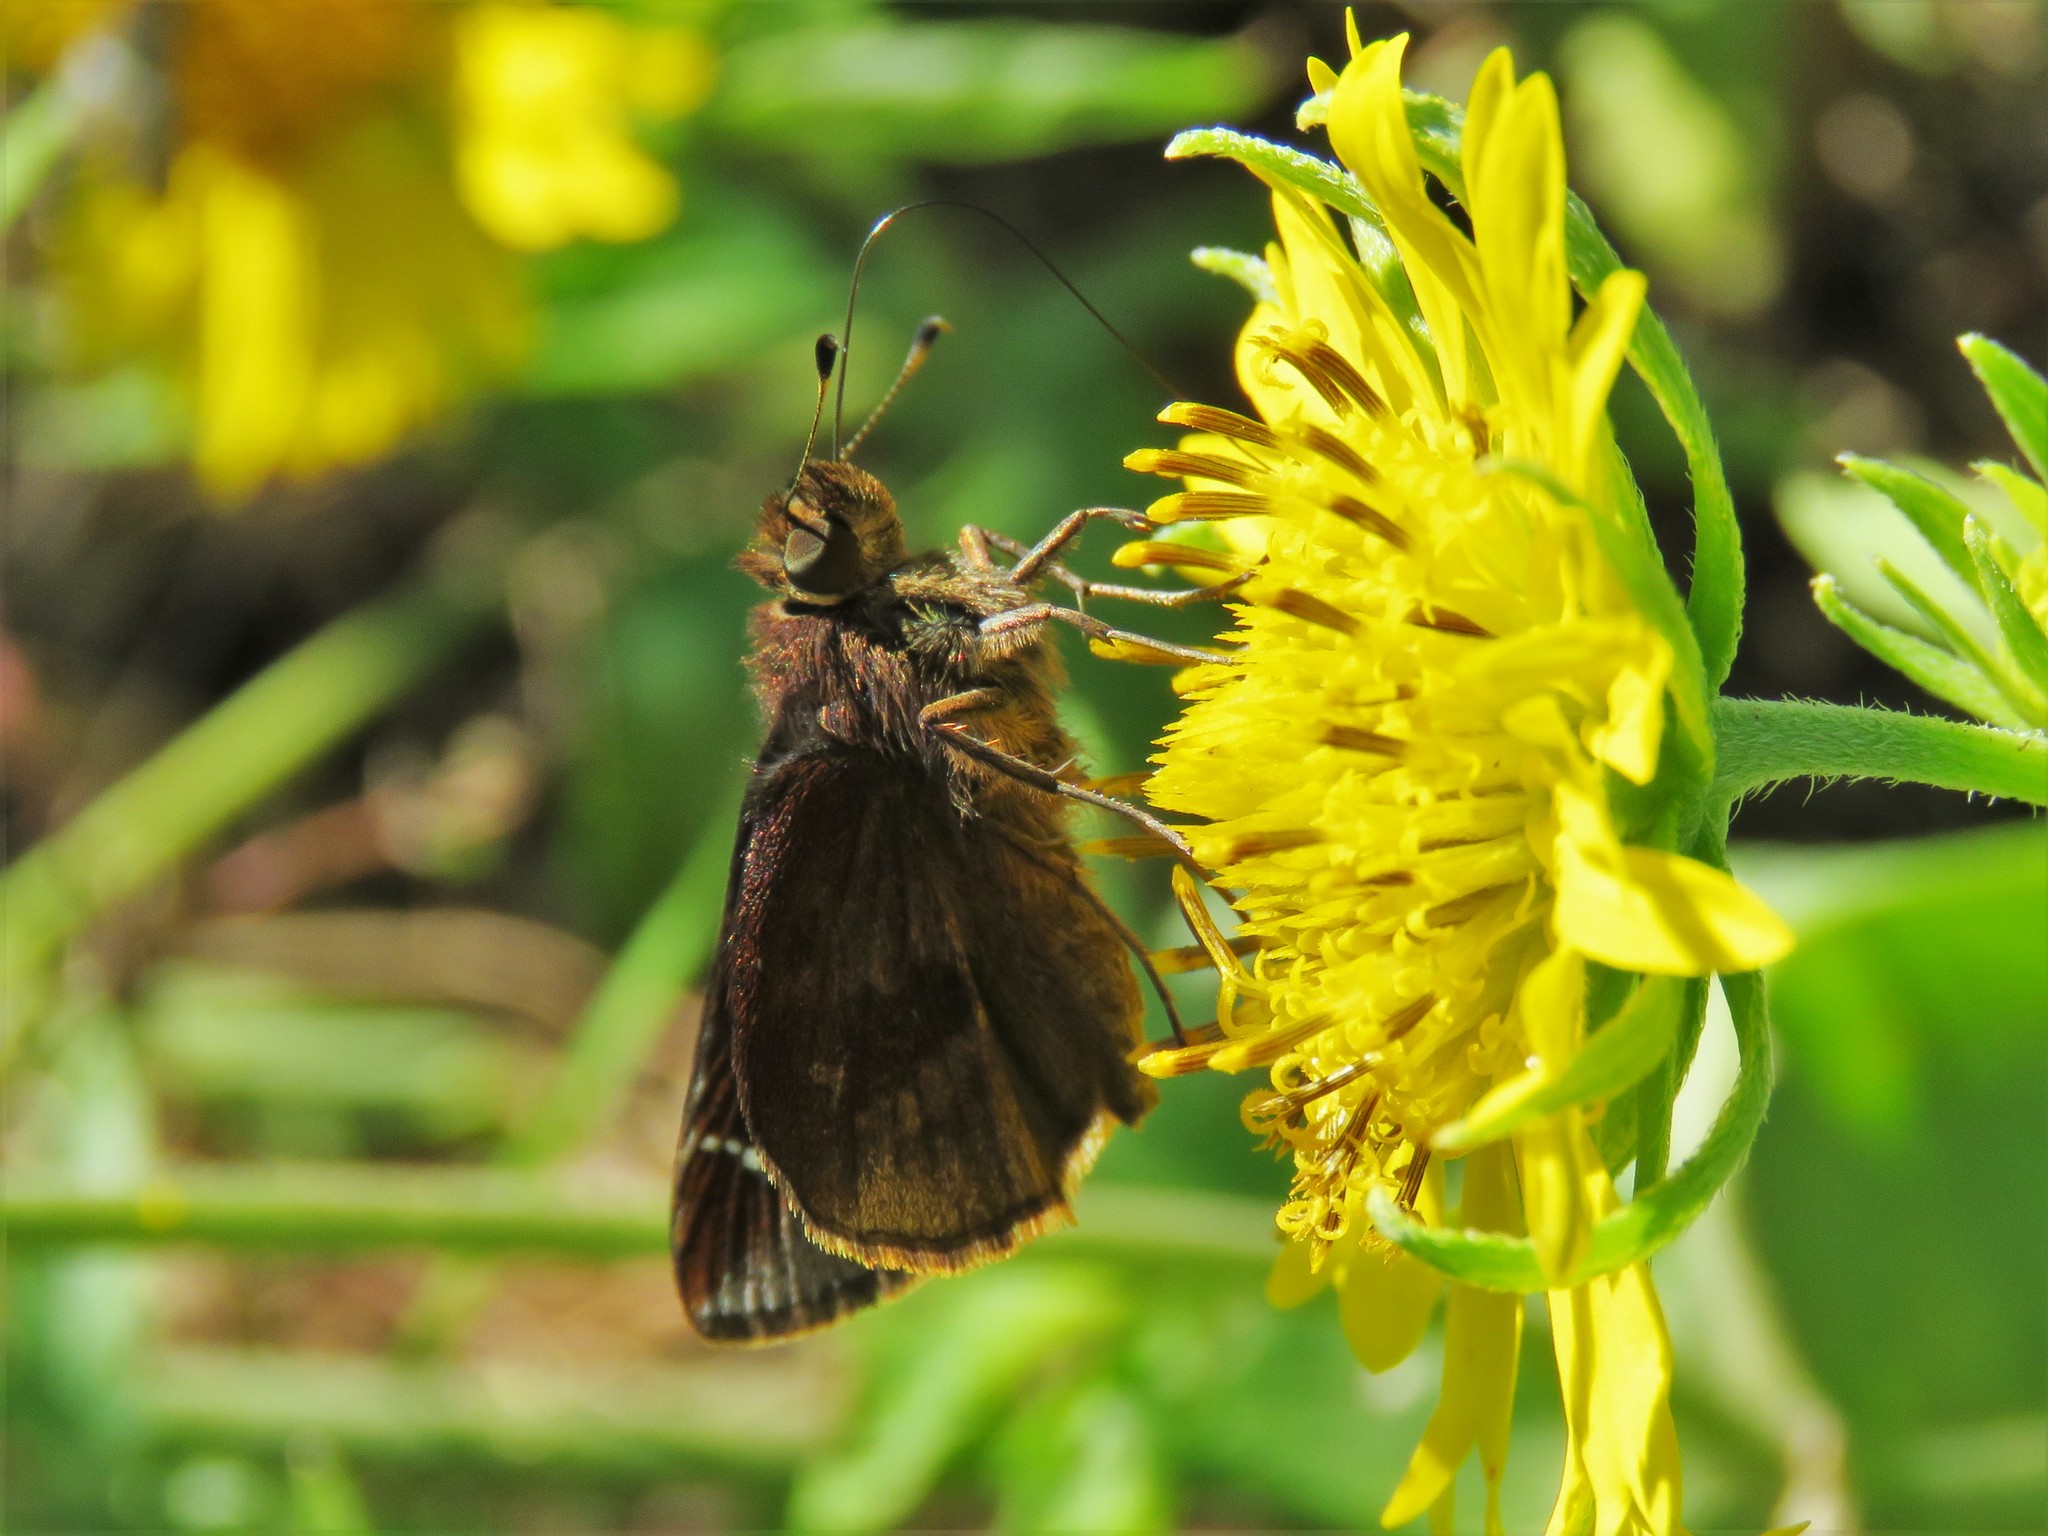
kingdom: Animalia
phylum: Arthropoda
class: Insecta
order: Lepidoptera
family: Hesperiidae
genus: Lerema
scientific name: Lerema accius
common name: Clouded skipper
